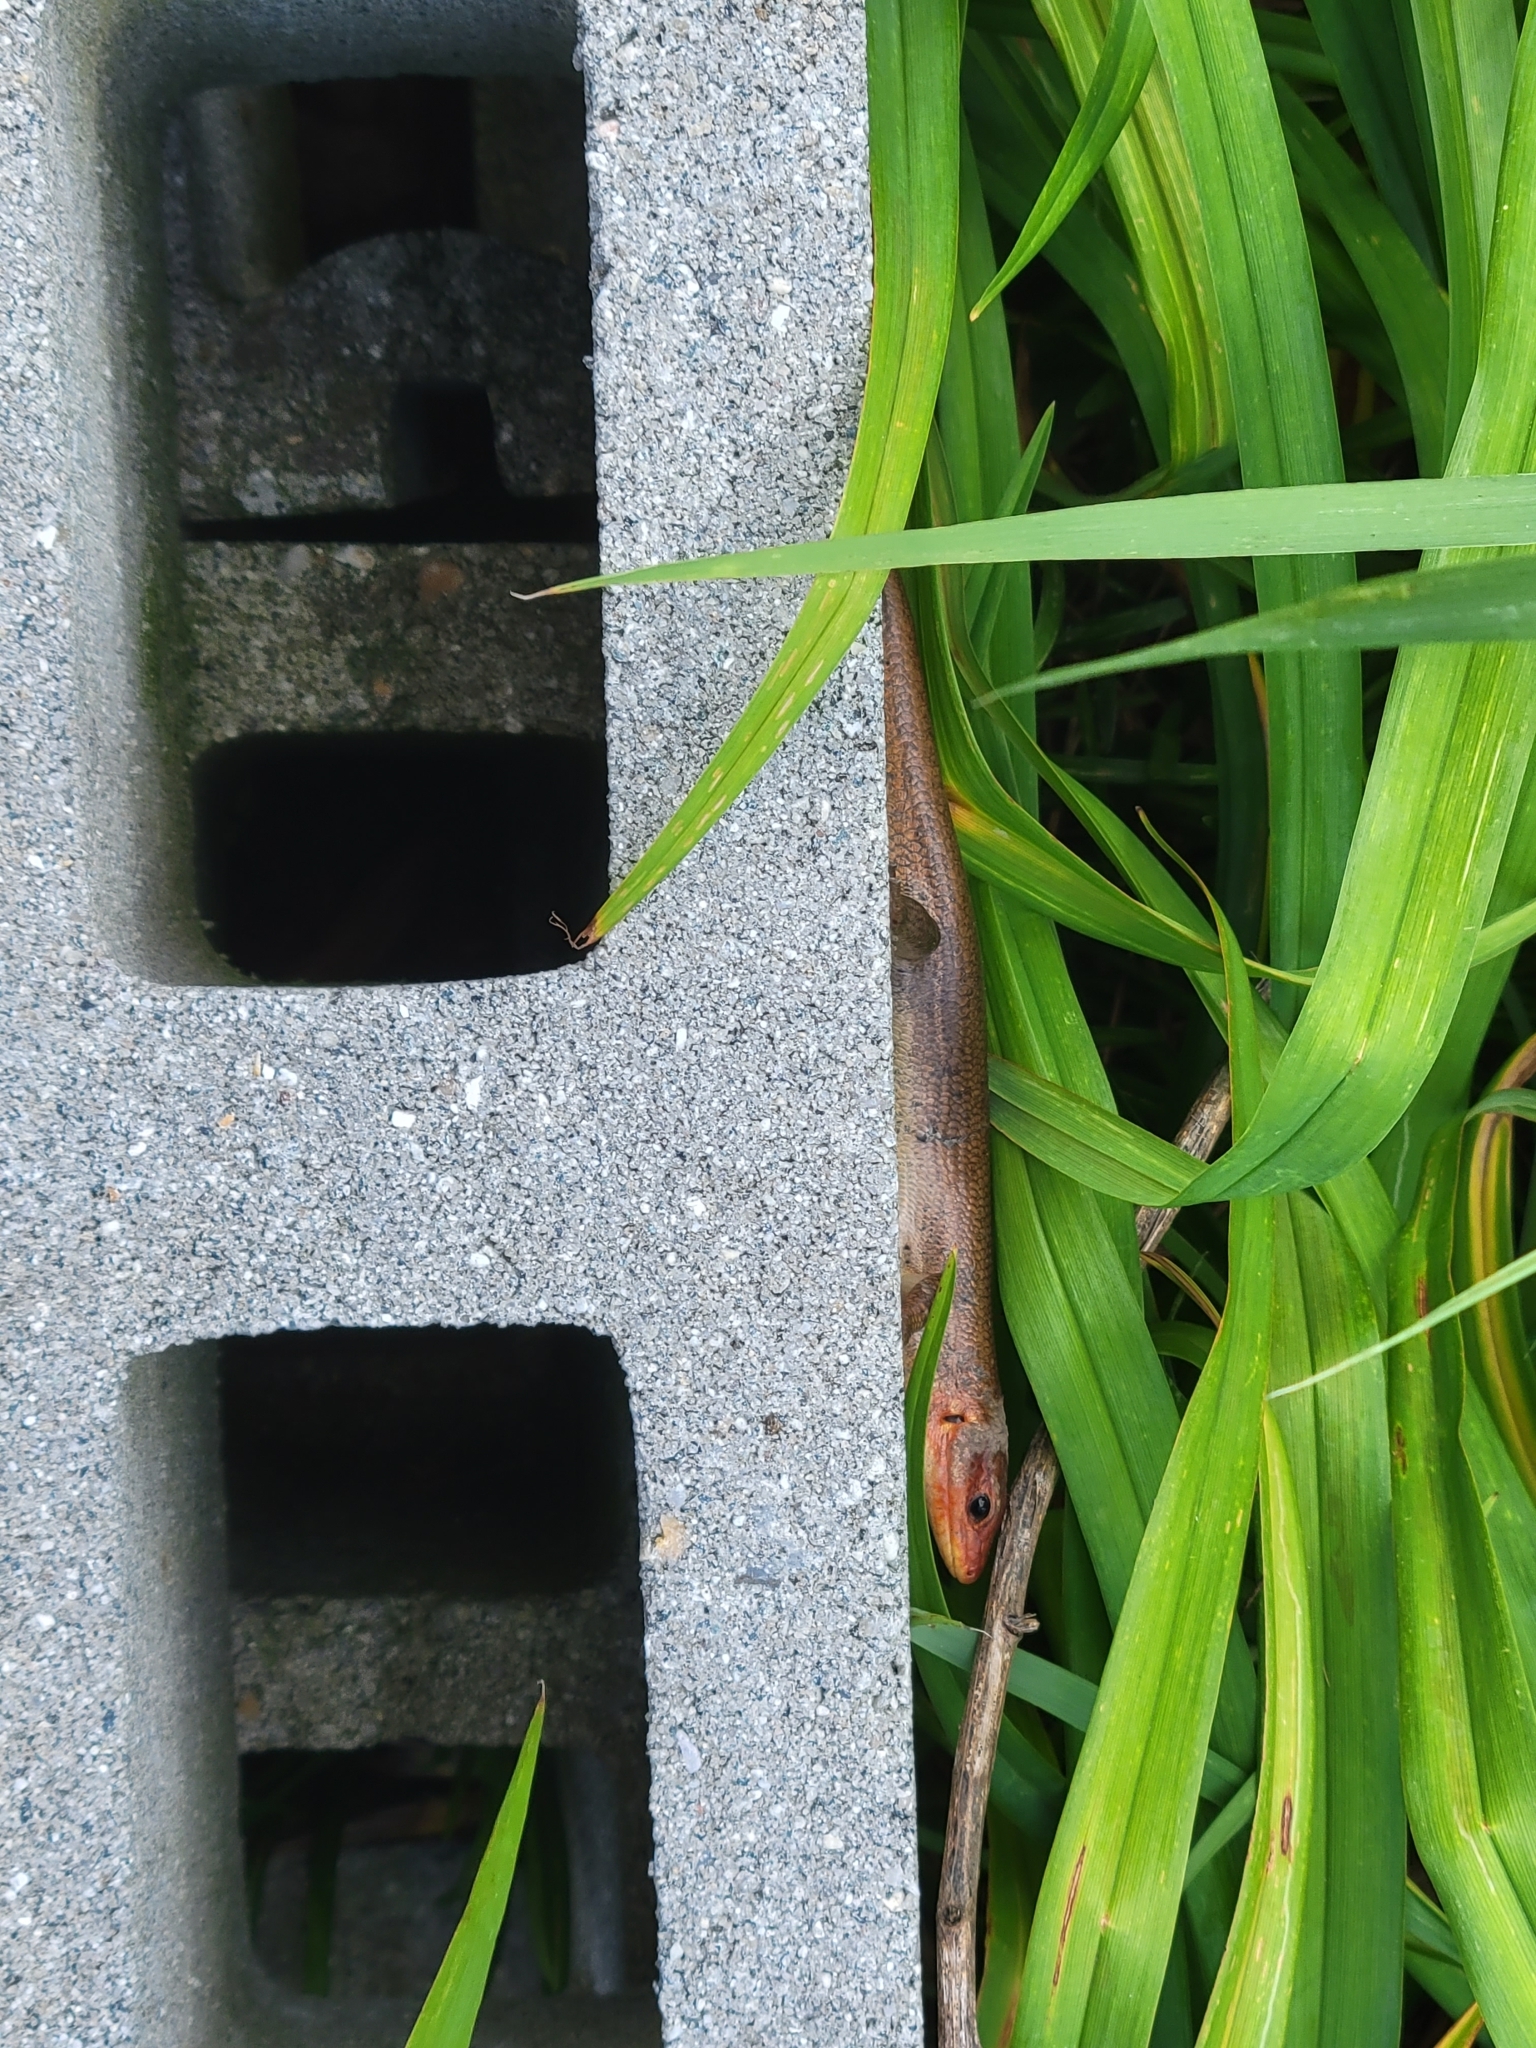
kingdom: Animalia
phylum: Chordata
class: Squamata
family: Scincidae
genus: Plestiodon
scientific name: Plestiodon laticeps
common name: Broadhead skink
